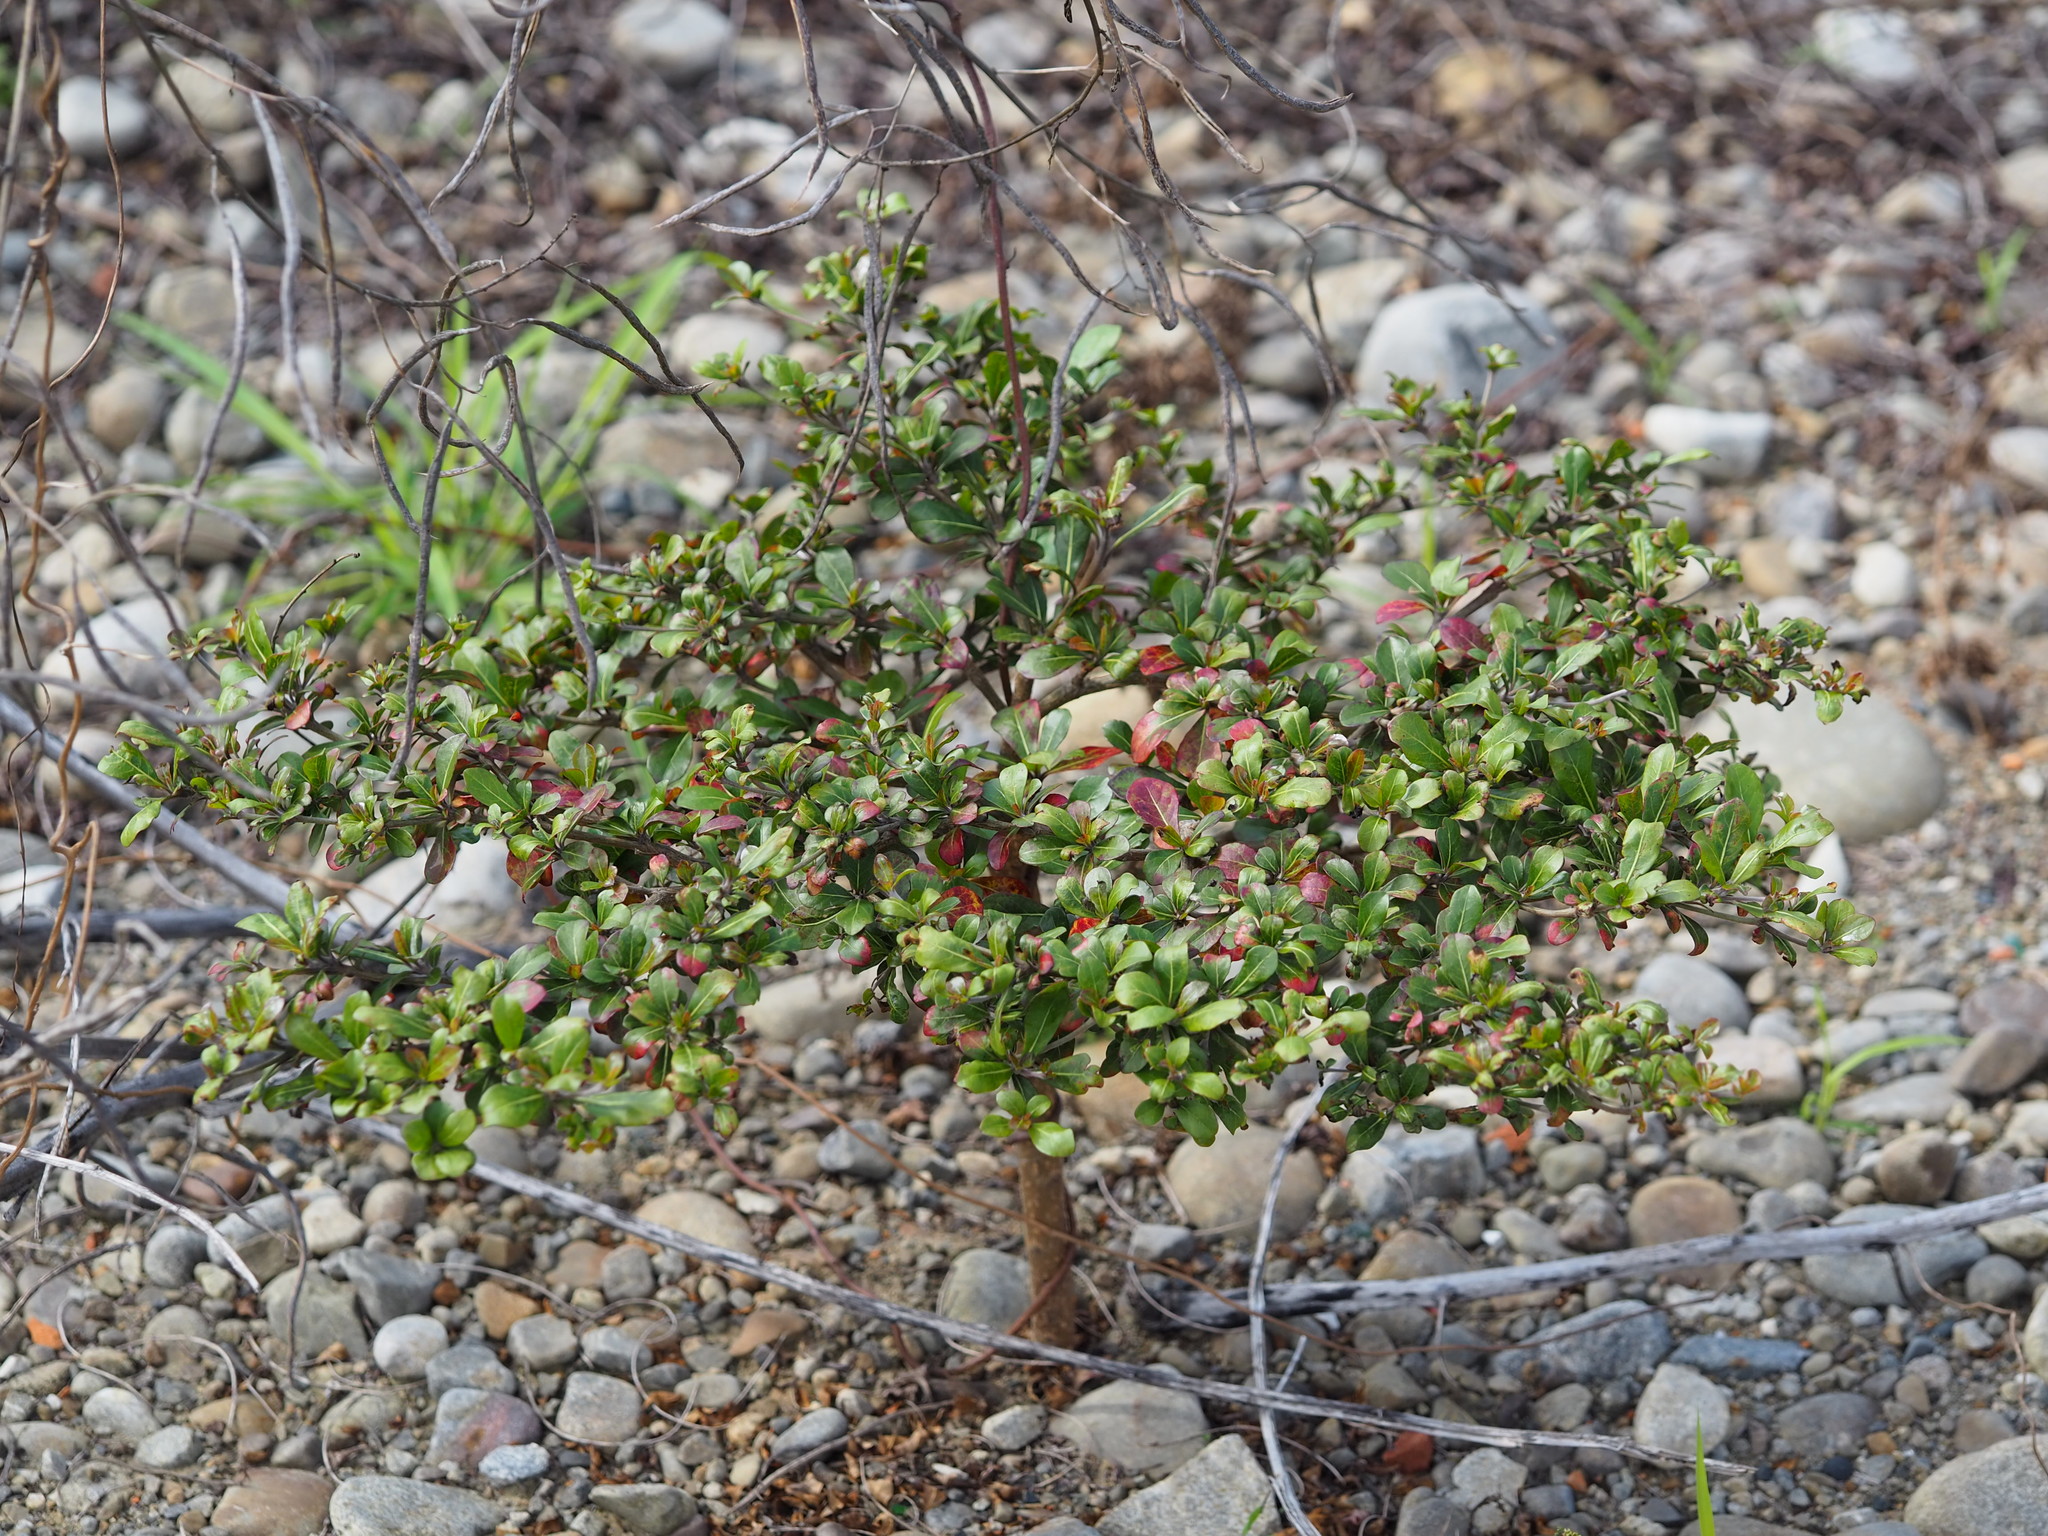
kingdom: Plantae
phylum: Tracheophyta
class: Magnoliopsida
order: Myrtales
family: Combretaceae
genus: Terminalia
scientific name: Terminalia neotaliala
